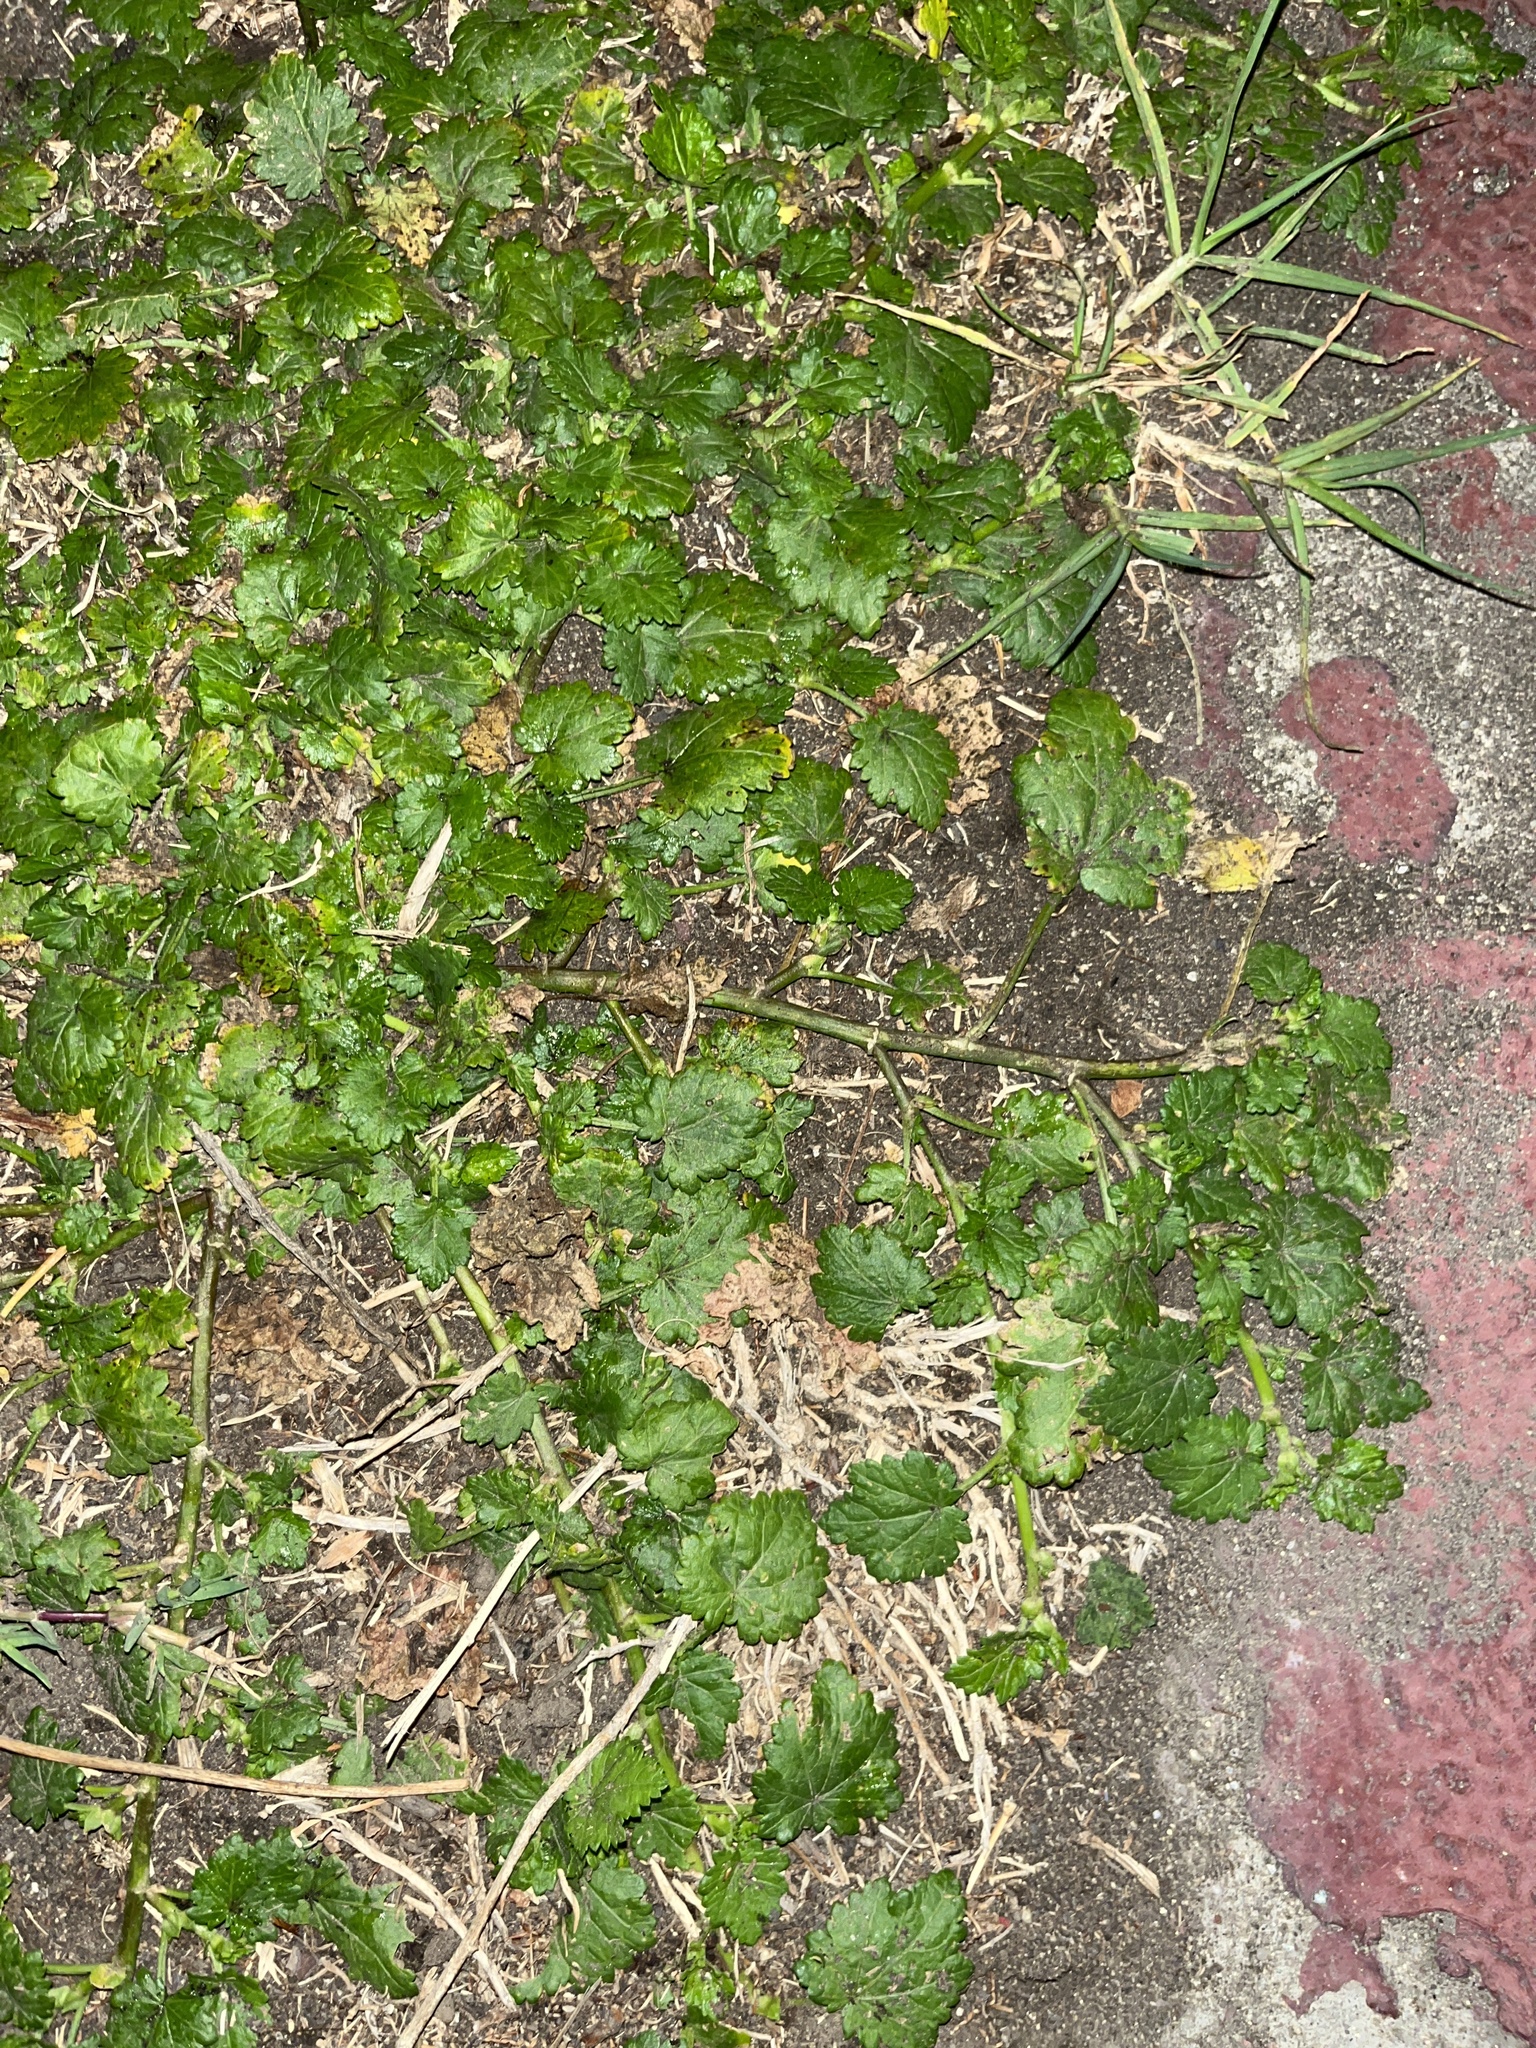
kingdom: Plantae
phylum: Tracheophyta
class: Magnoliopsida
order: Malvales
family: Malvaceae
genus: Modiola
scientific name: Modiola caroliniana
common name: Carolina bristlemallow
